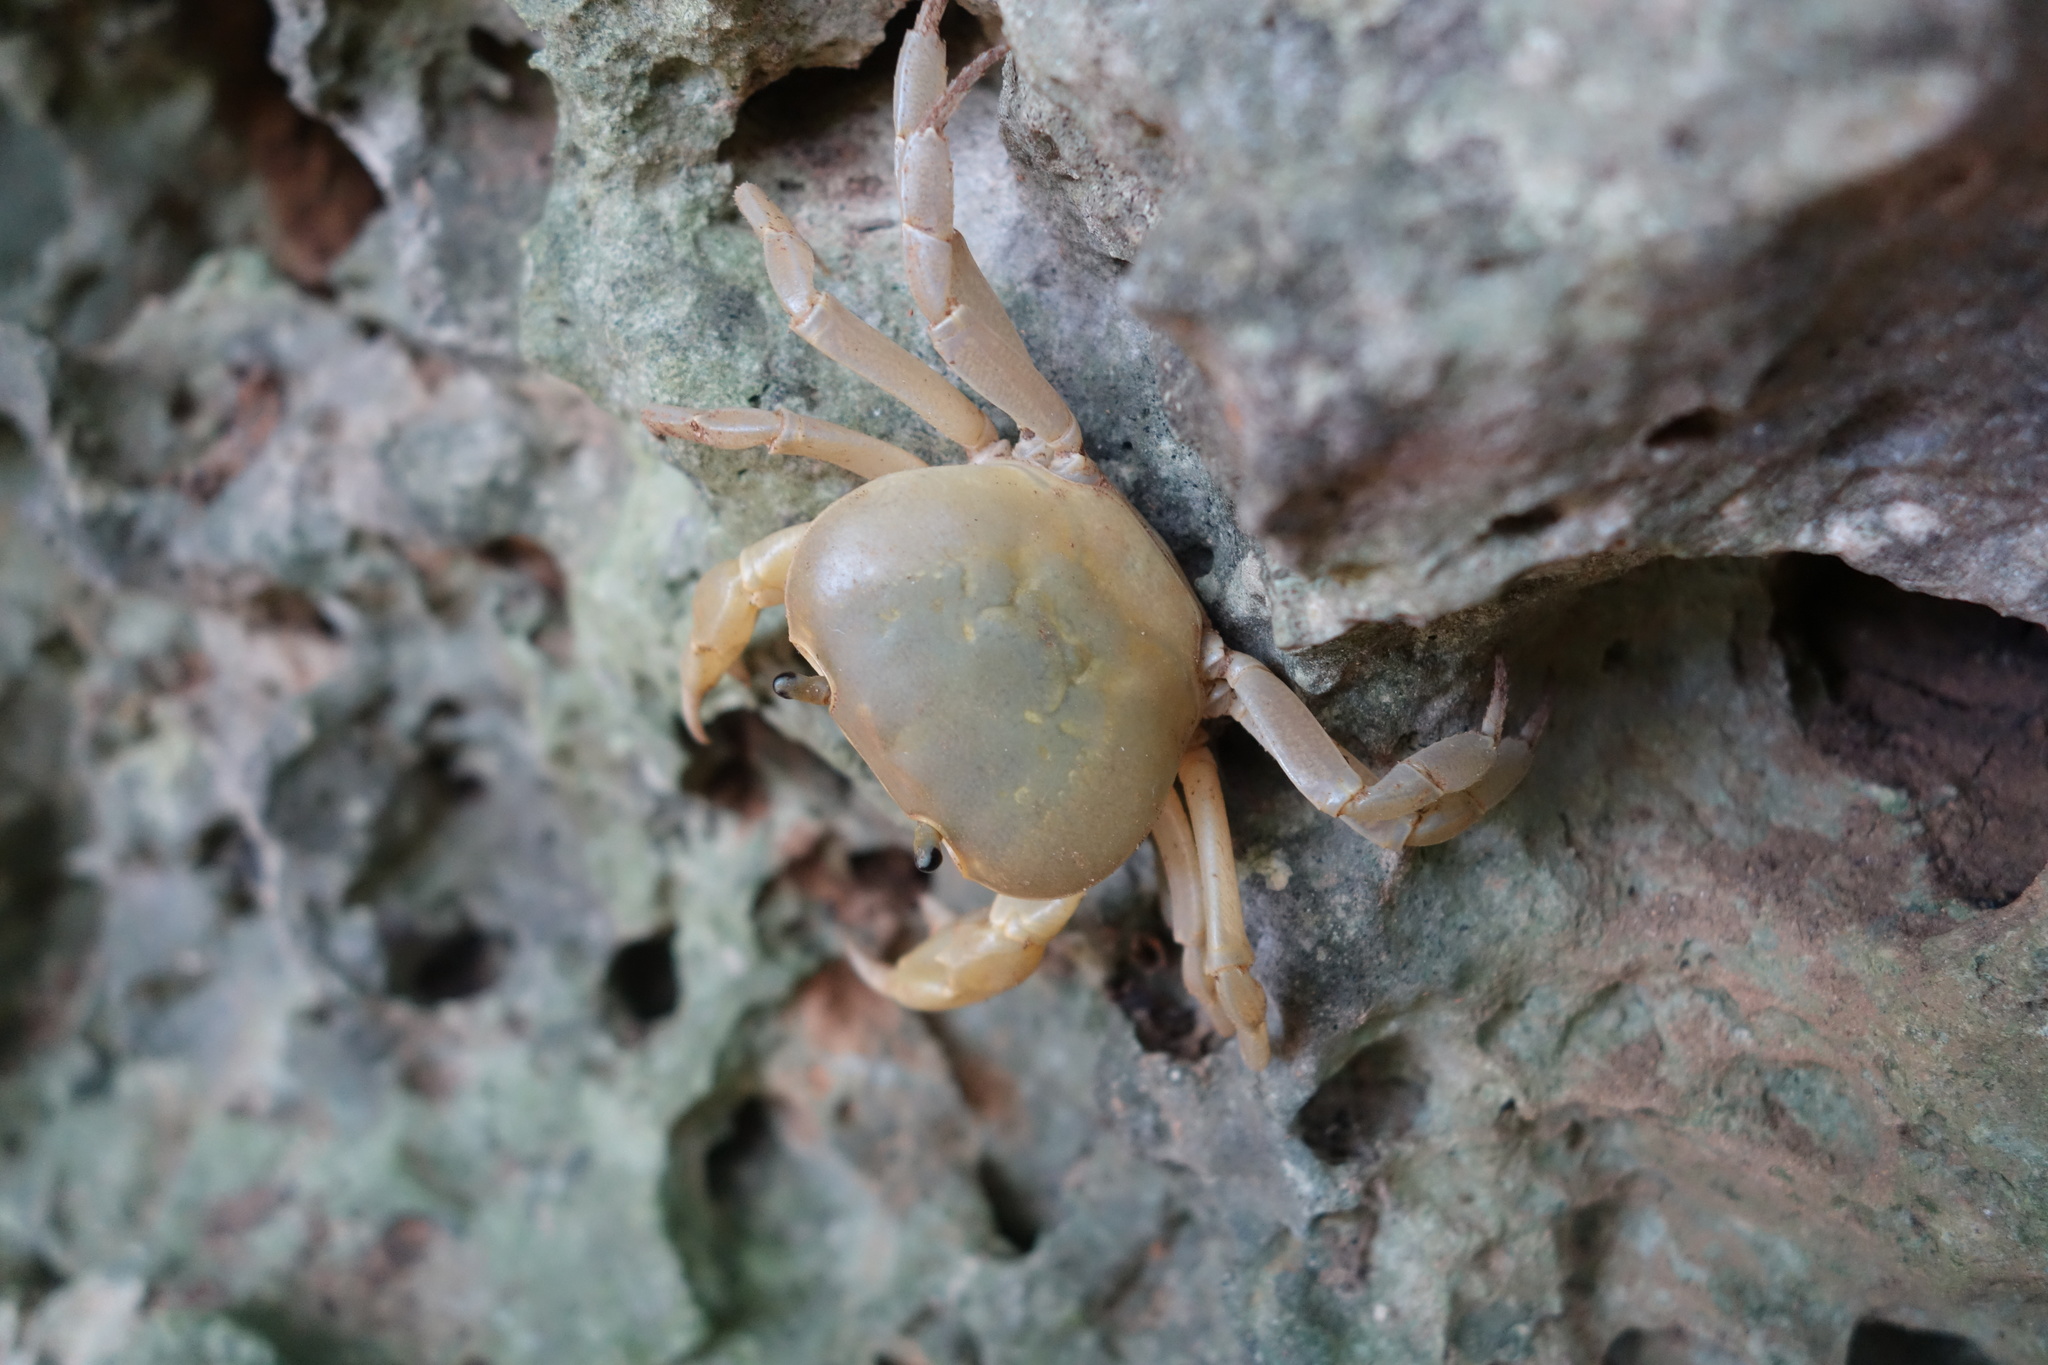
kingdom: Animalia
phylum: Arthropoda
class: Malacostraca
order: Decapoda
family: Potamidae
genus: Geothelphusa
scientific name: Geothelphusa albogilva
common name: Huang ze gray crab
